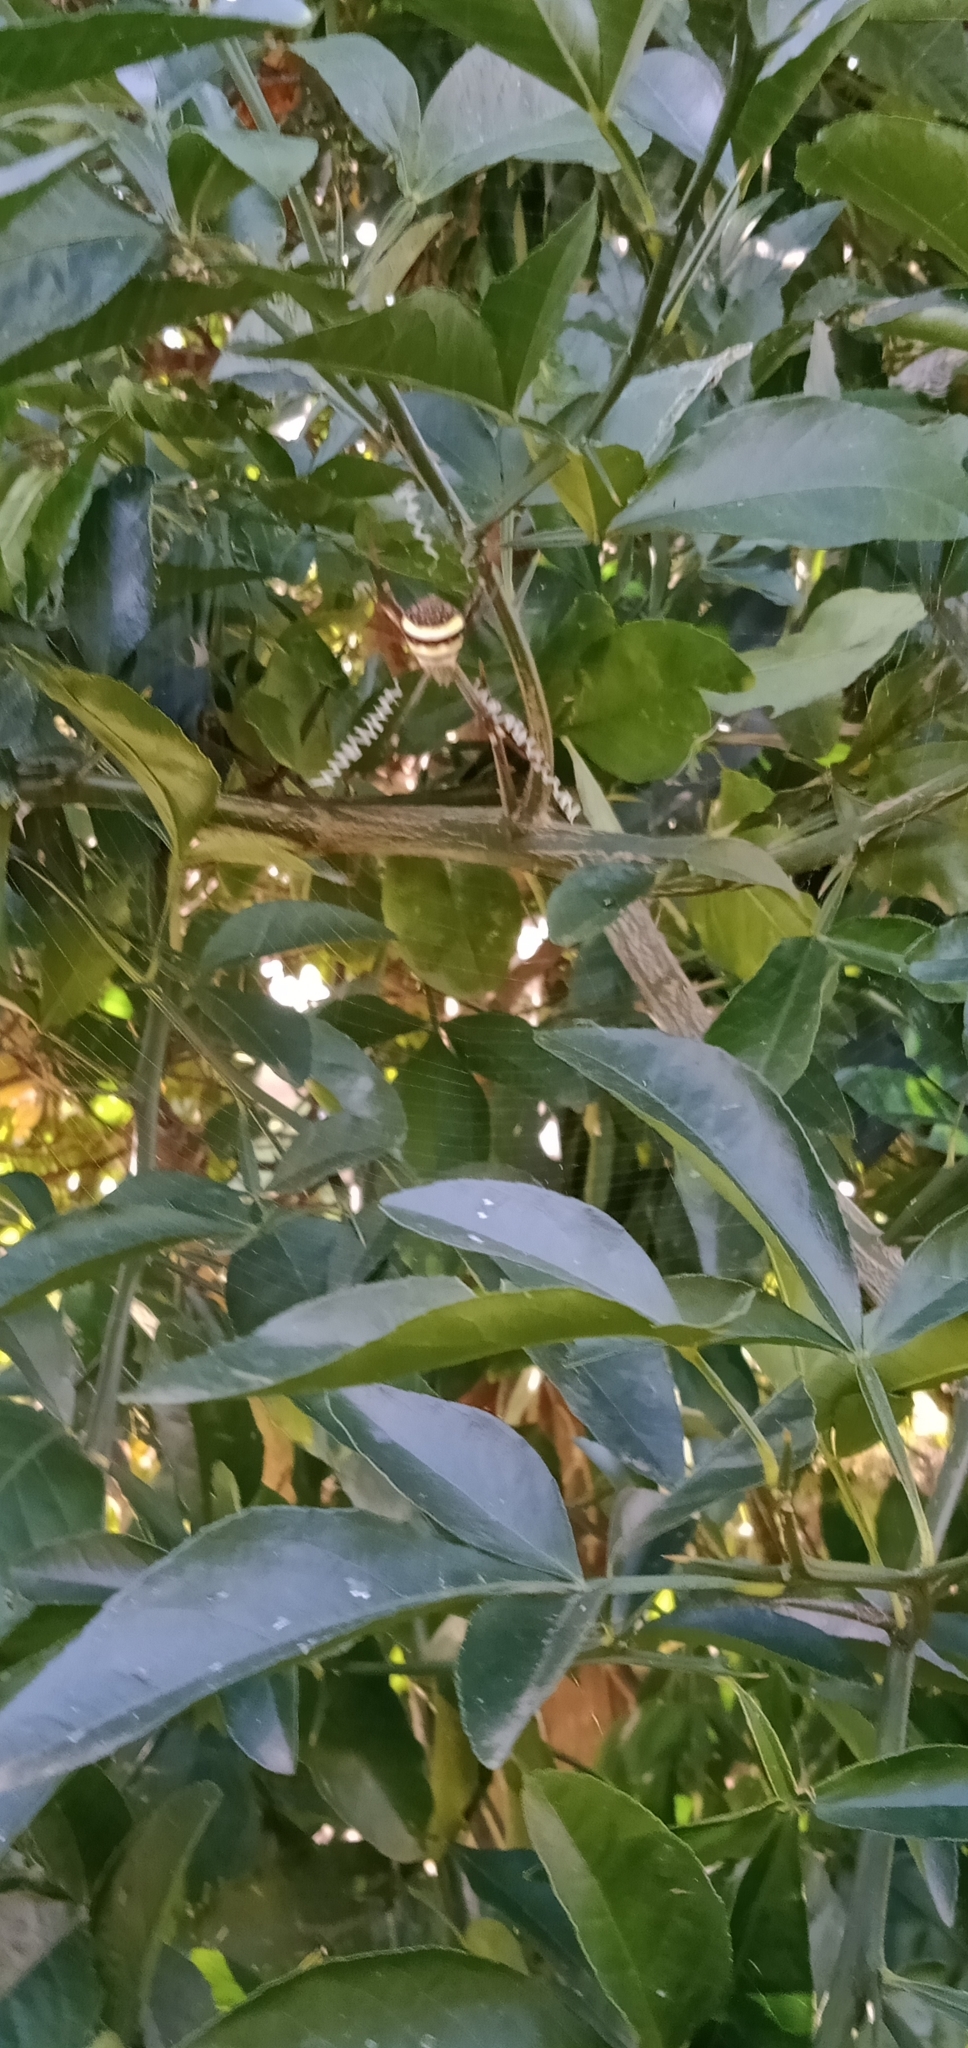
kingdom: Animalia
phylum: Arthropoda
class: Arachnida
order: Araneae
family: Araneidae
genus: Argiope
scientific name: Argiope keyserlingi
